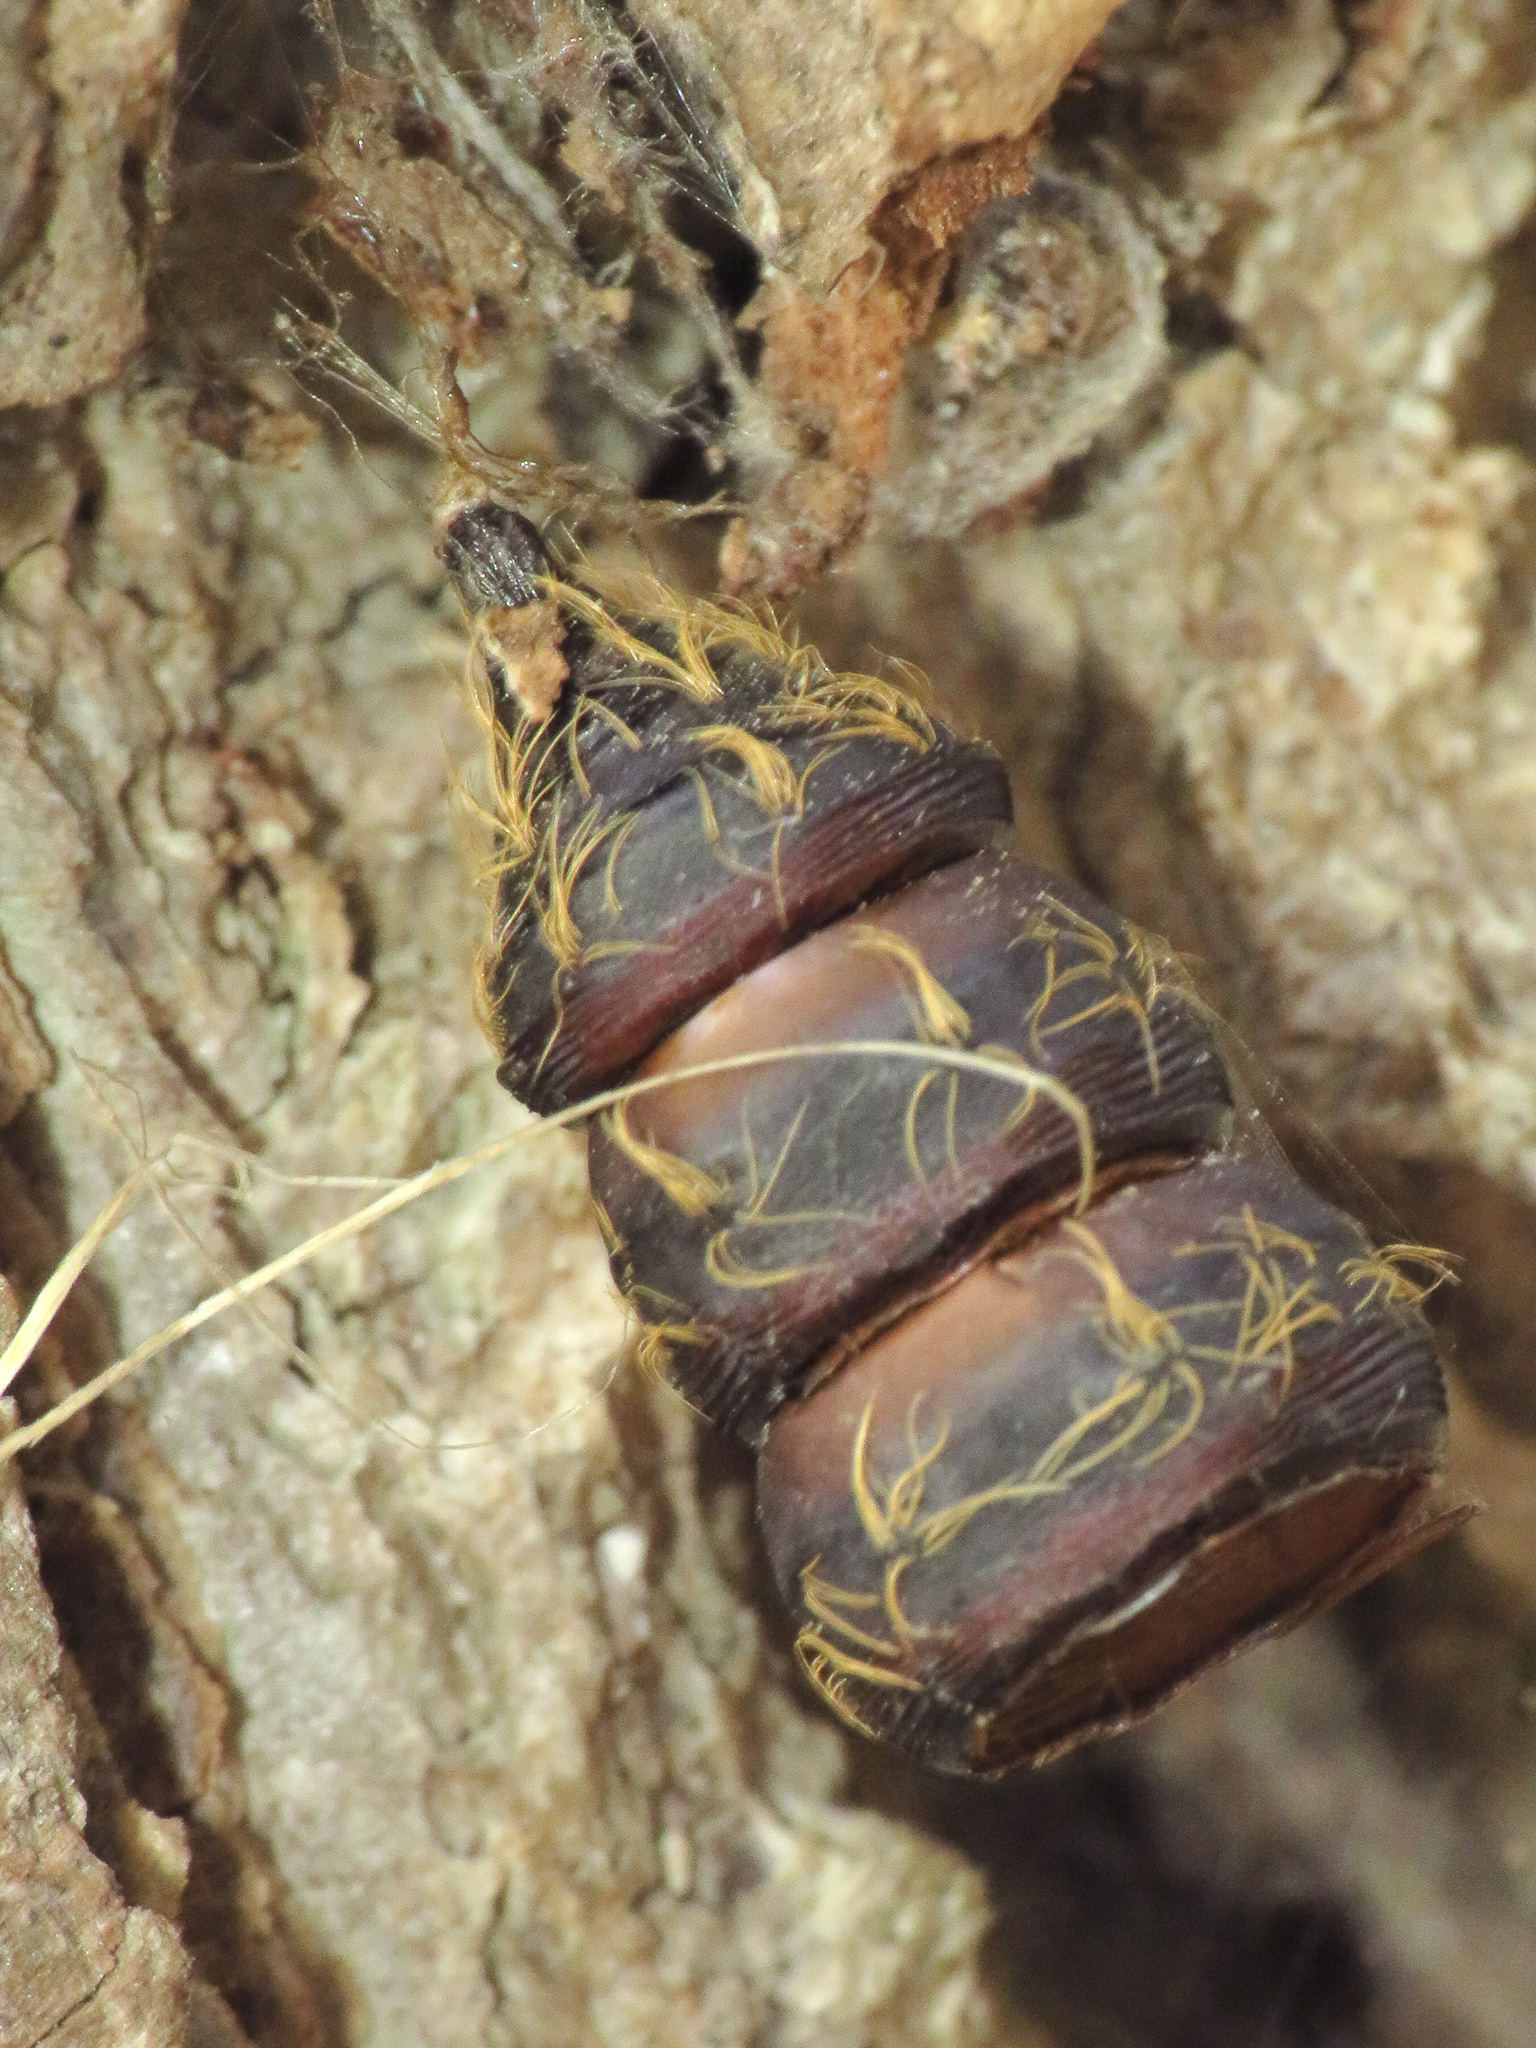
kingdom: Animalia
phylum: Arthropoda
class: Insecta
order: Lepidoptera
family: Erebidae
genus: Lymantria
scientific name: Lymantria dispar
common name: Gypsy moth
